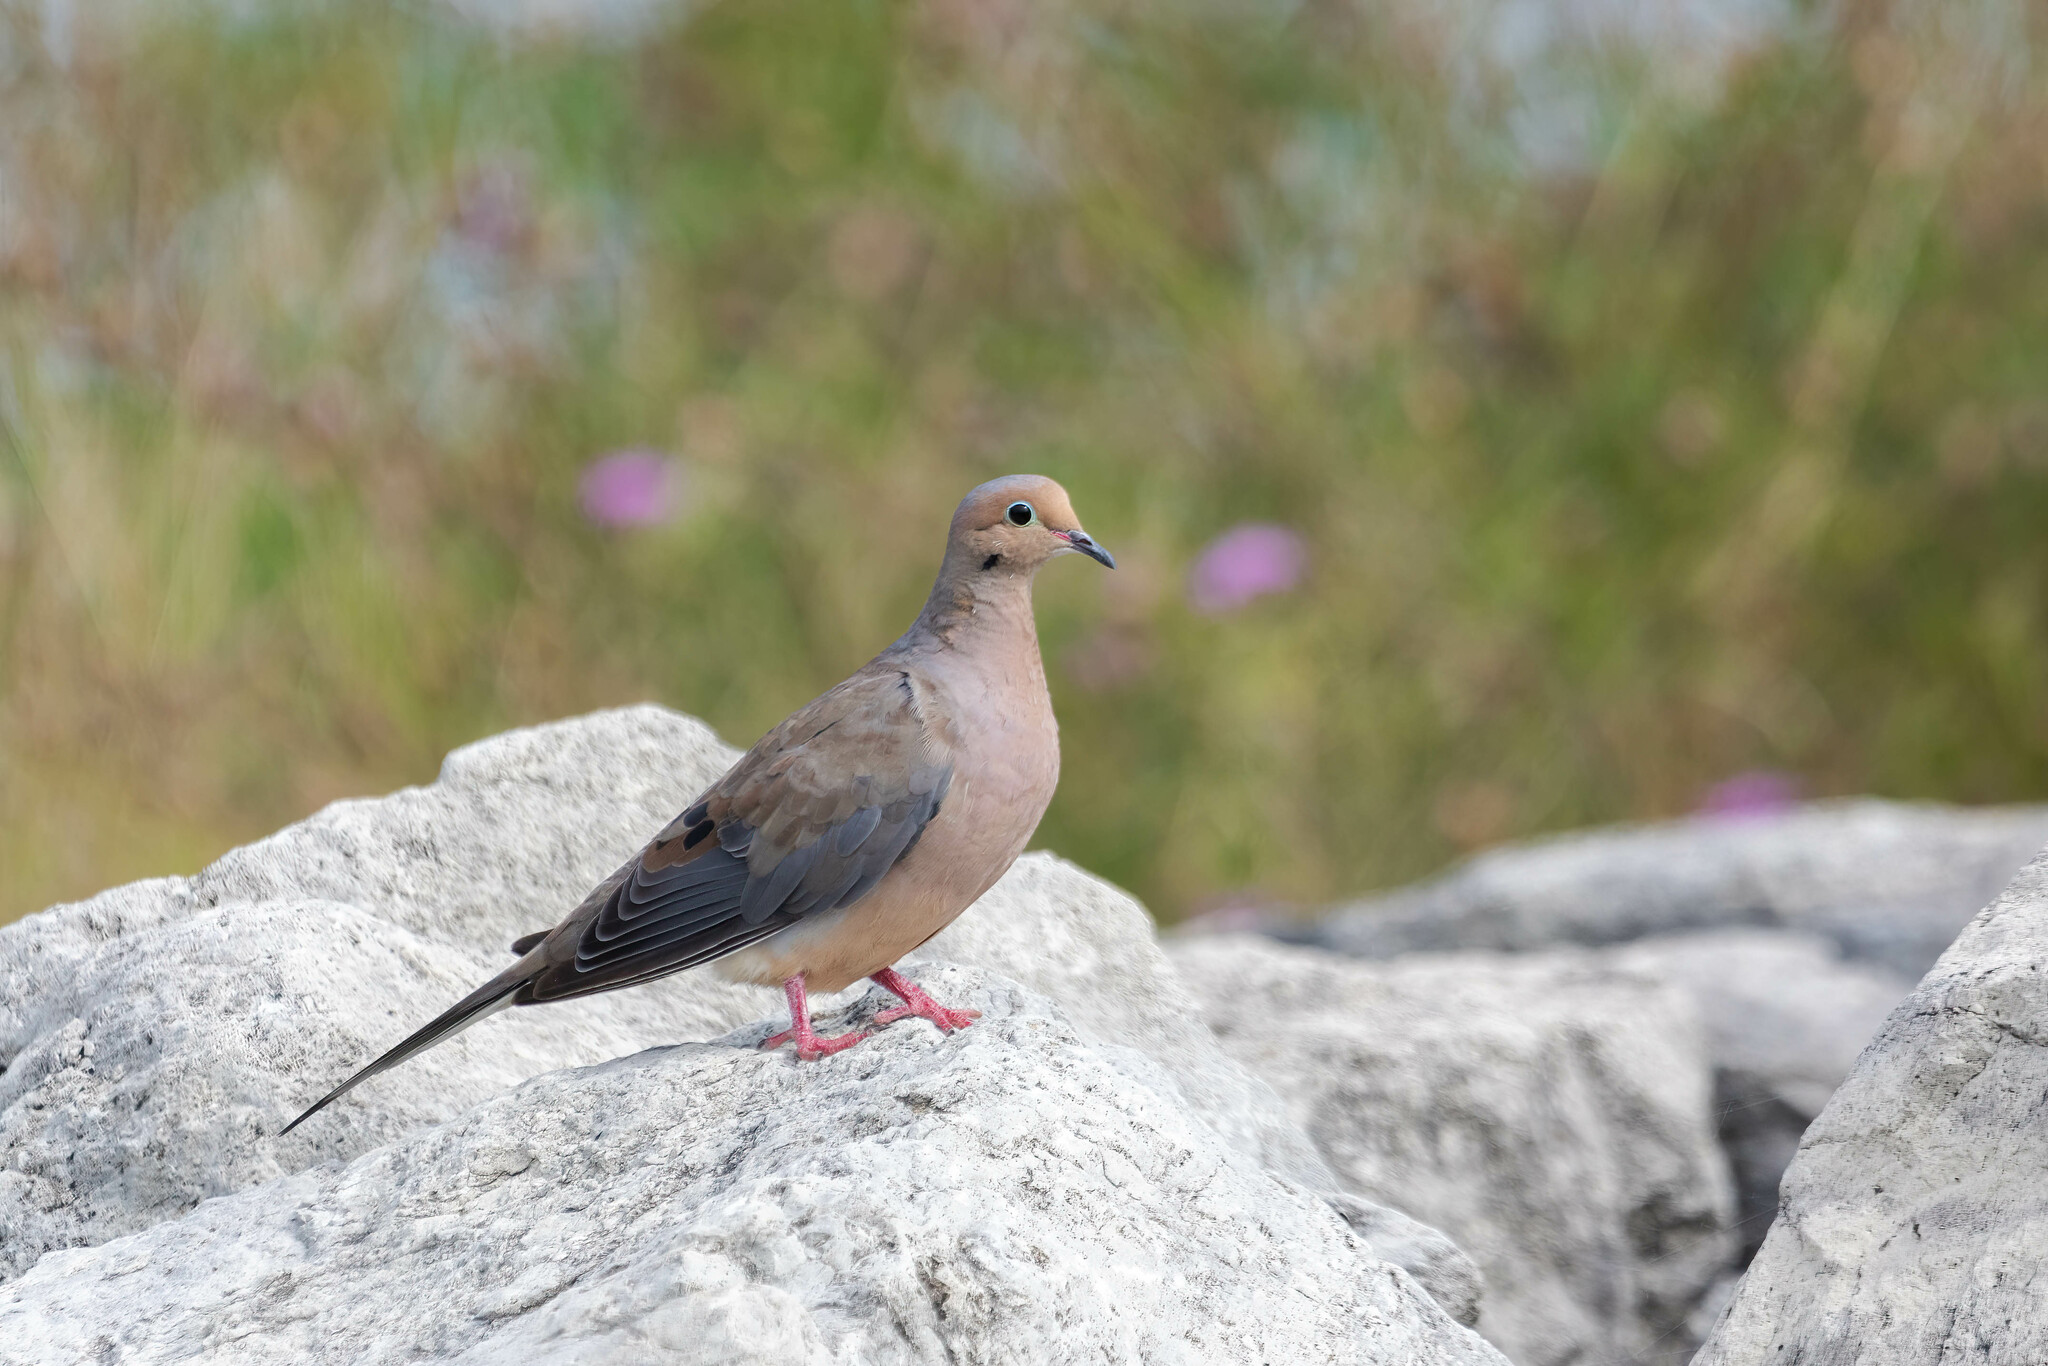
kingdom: Animalia
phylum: Chordata
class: Aves
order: Columbiformes
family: Columbidae
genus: Zenaida
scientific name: Zenaida macroura
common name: Mourning dove
